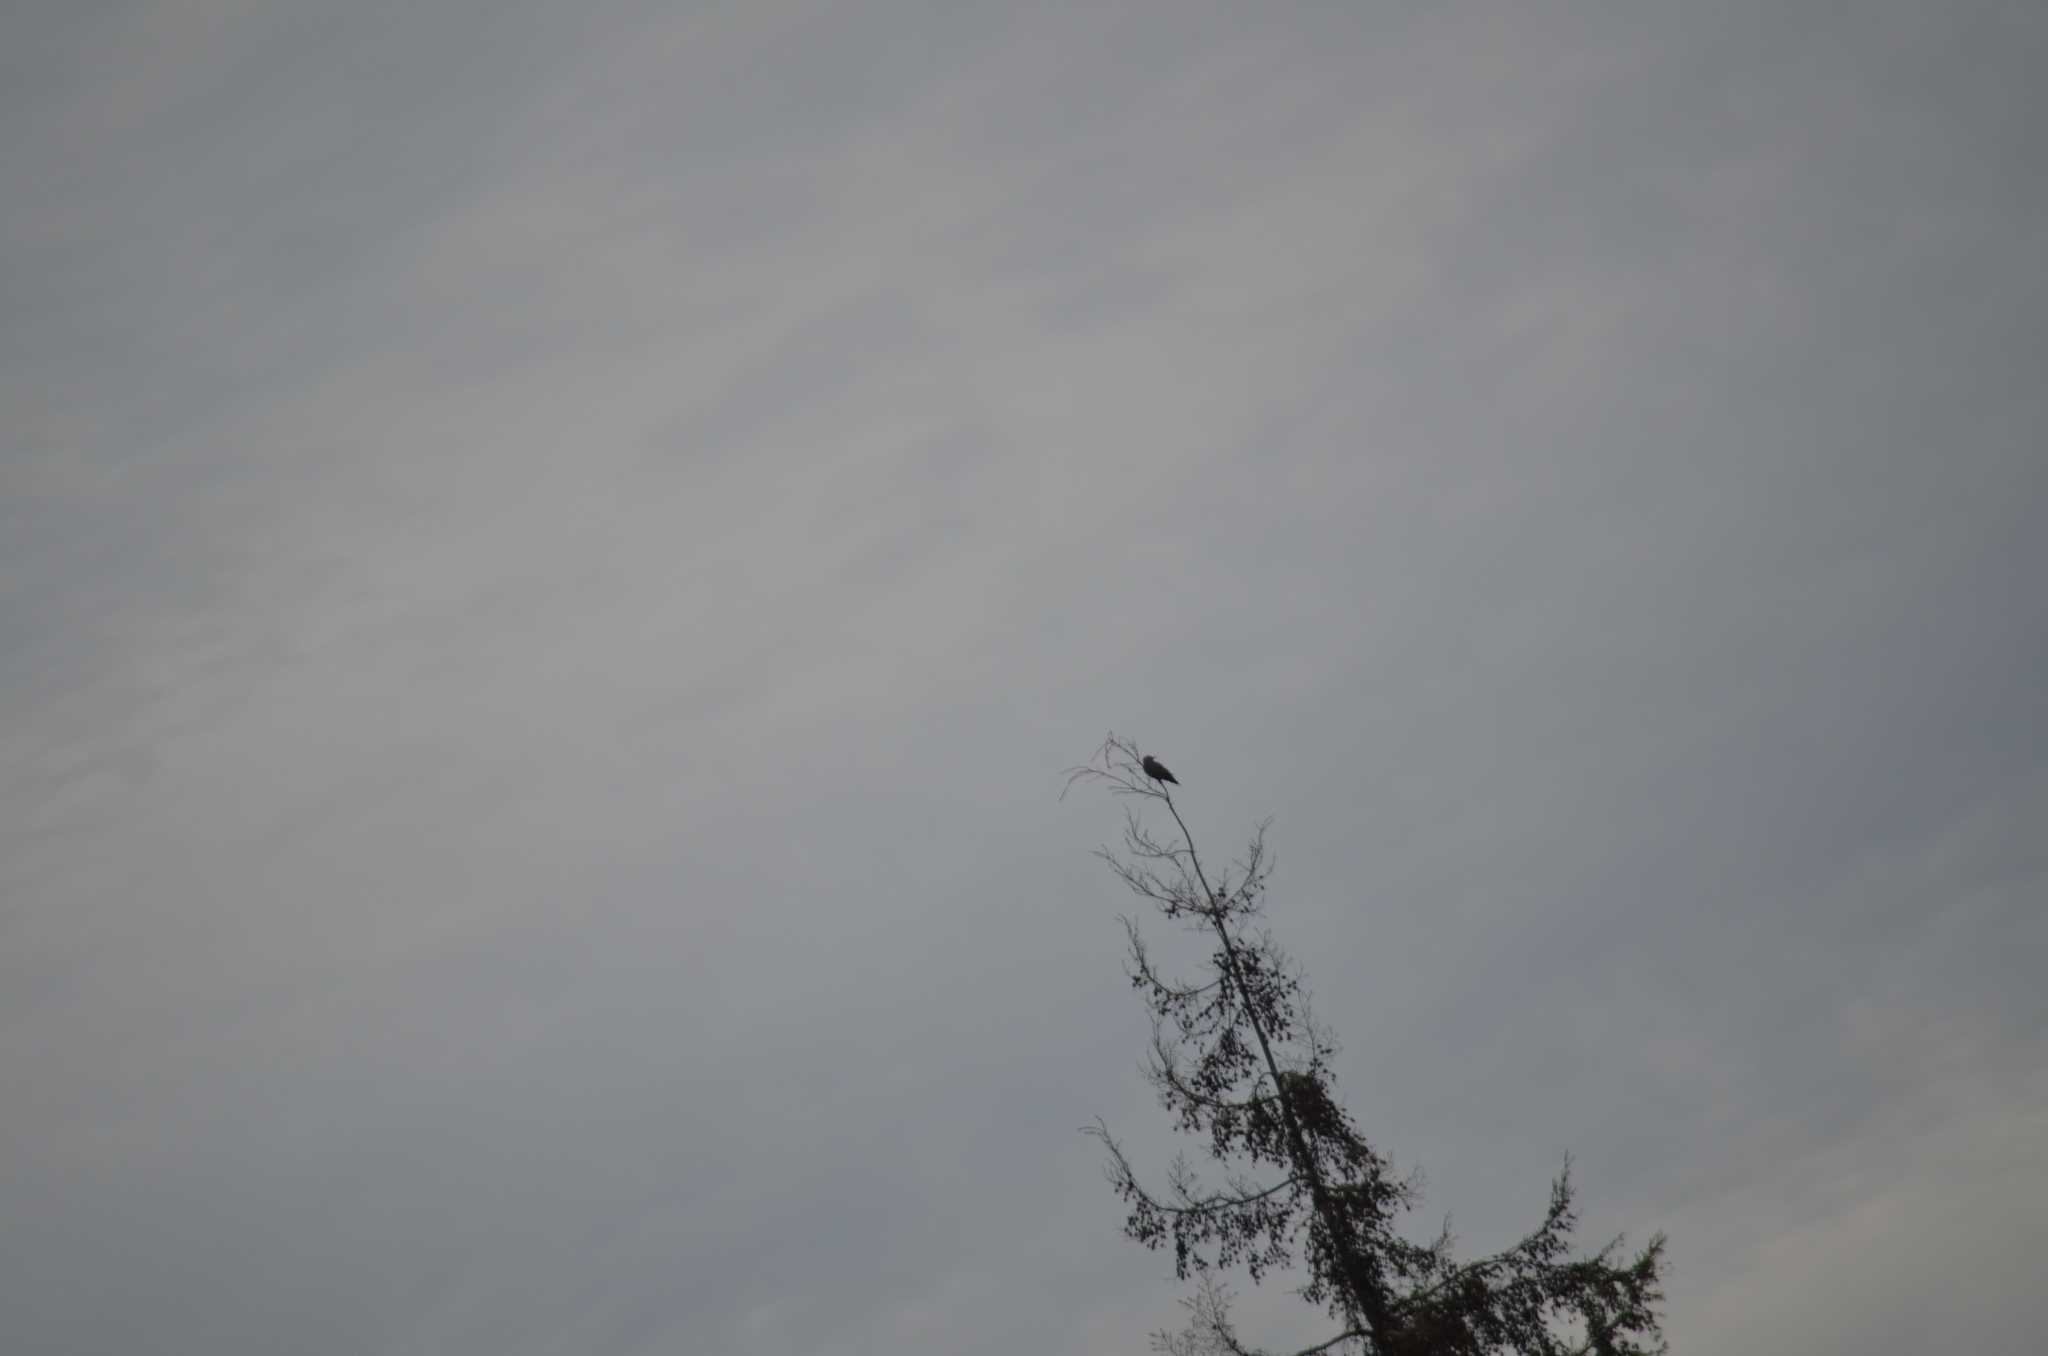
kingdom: Animalia
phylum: Chordata
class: Aves
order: Piciformes
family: Picidae
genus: Colaptes
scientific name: Colaptes auratus
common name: Northern flicker
